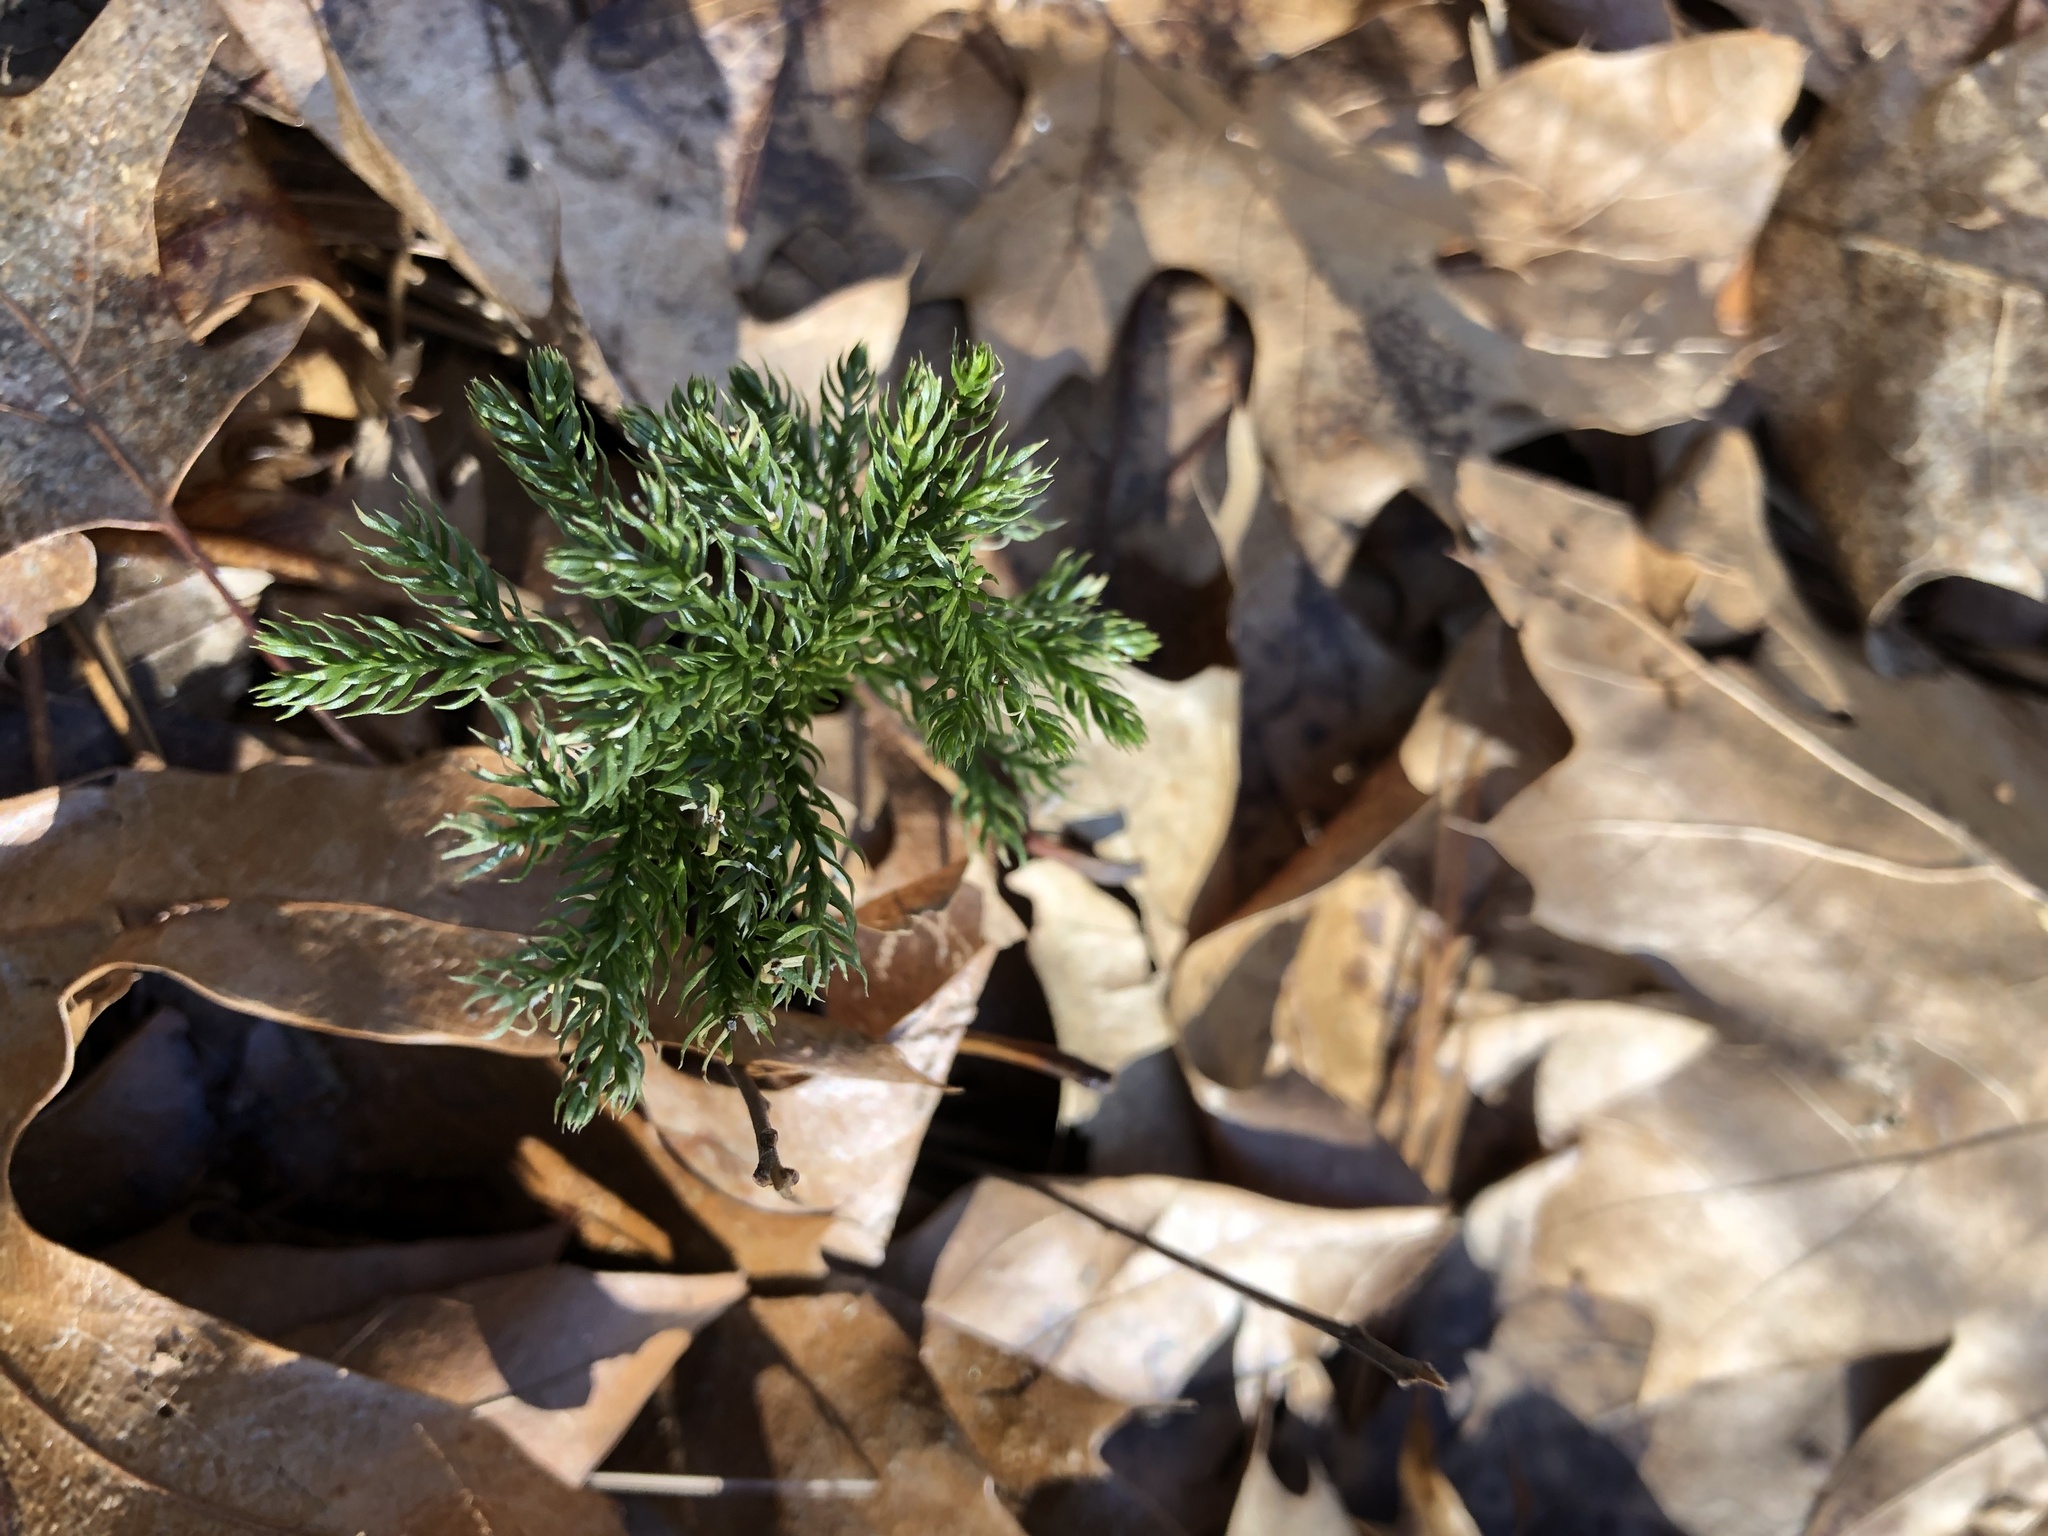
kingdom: Plantae
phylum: Tracheophyta
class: Lycopodiopsida
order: Lycopodiales
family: Lycopodiaceae
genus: Dendrolycopodium
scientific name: Dendrolycopodium hickeyi
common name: Hickey's clubmoss
